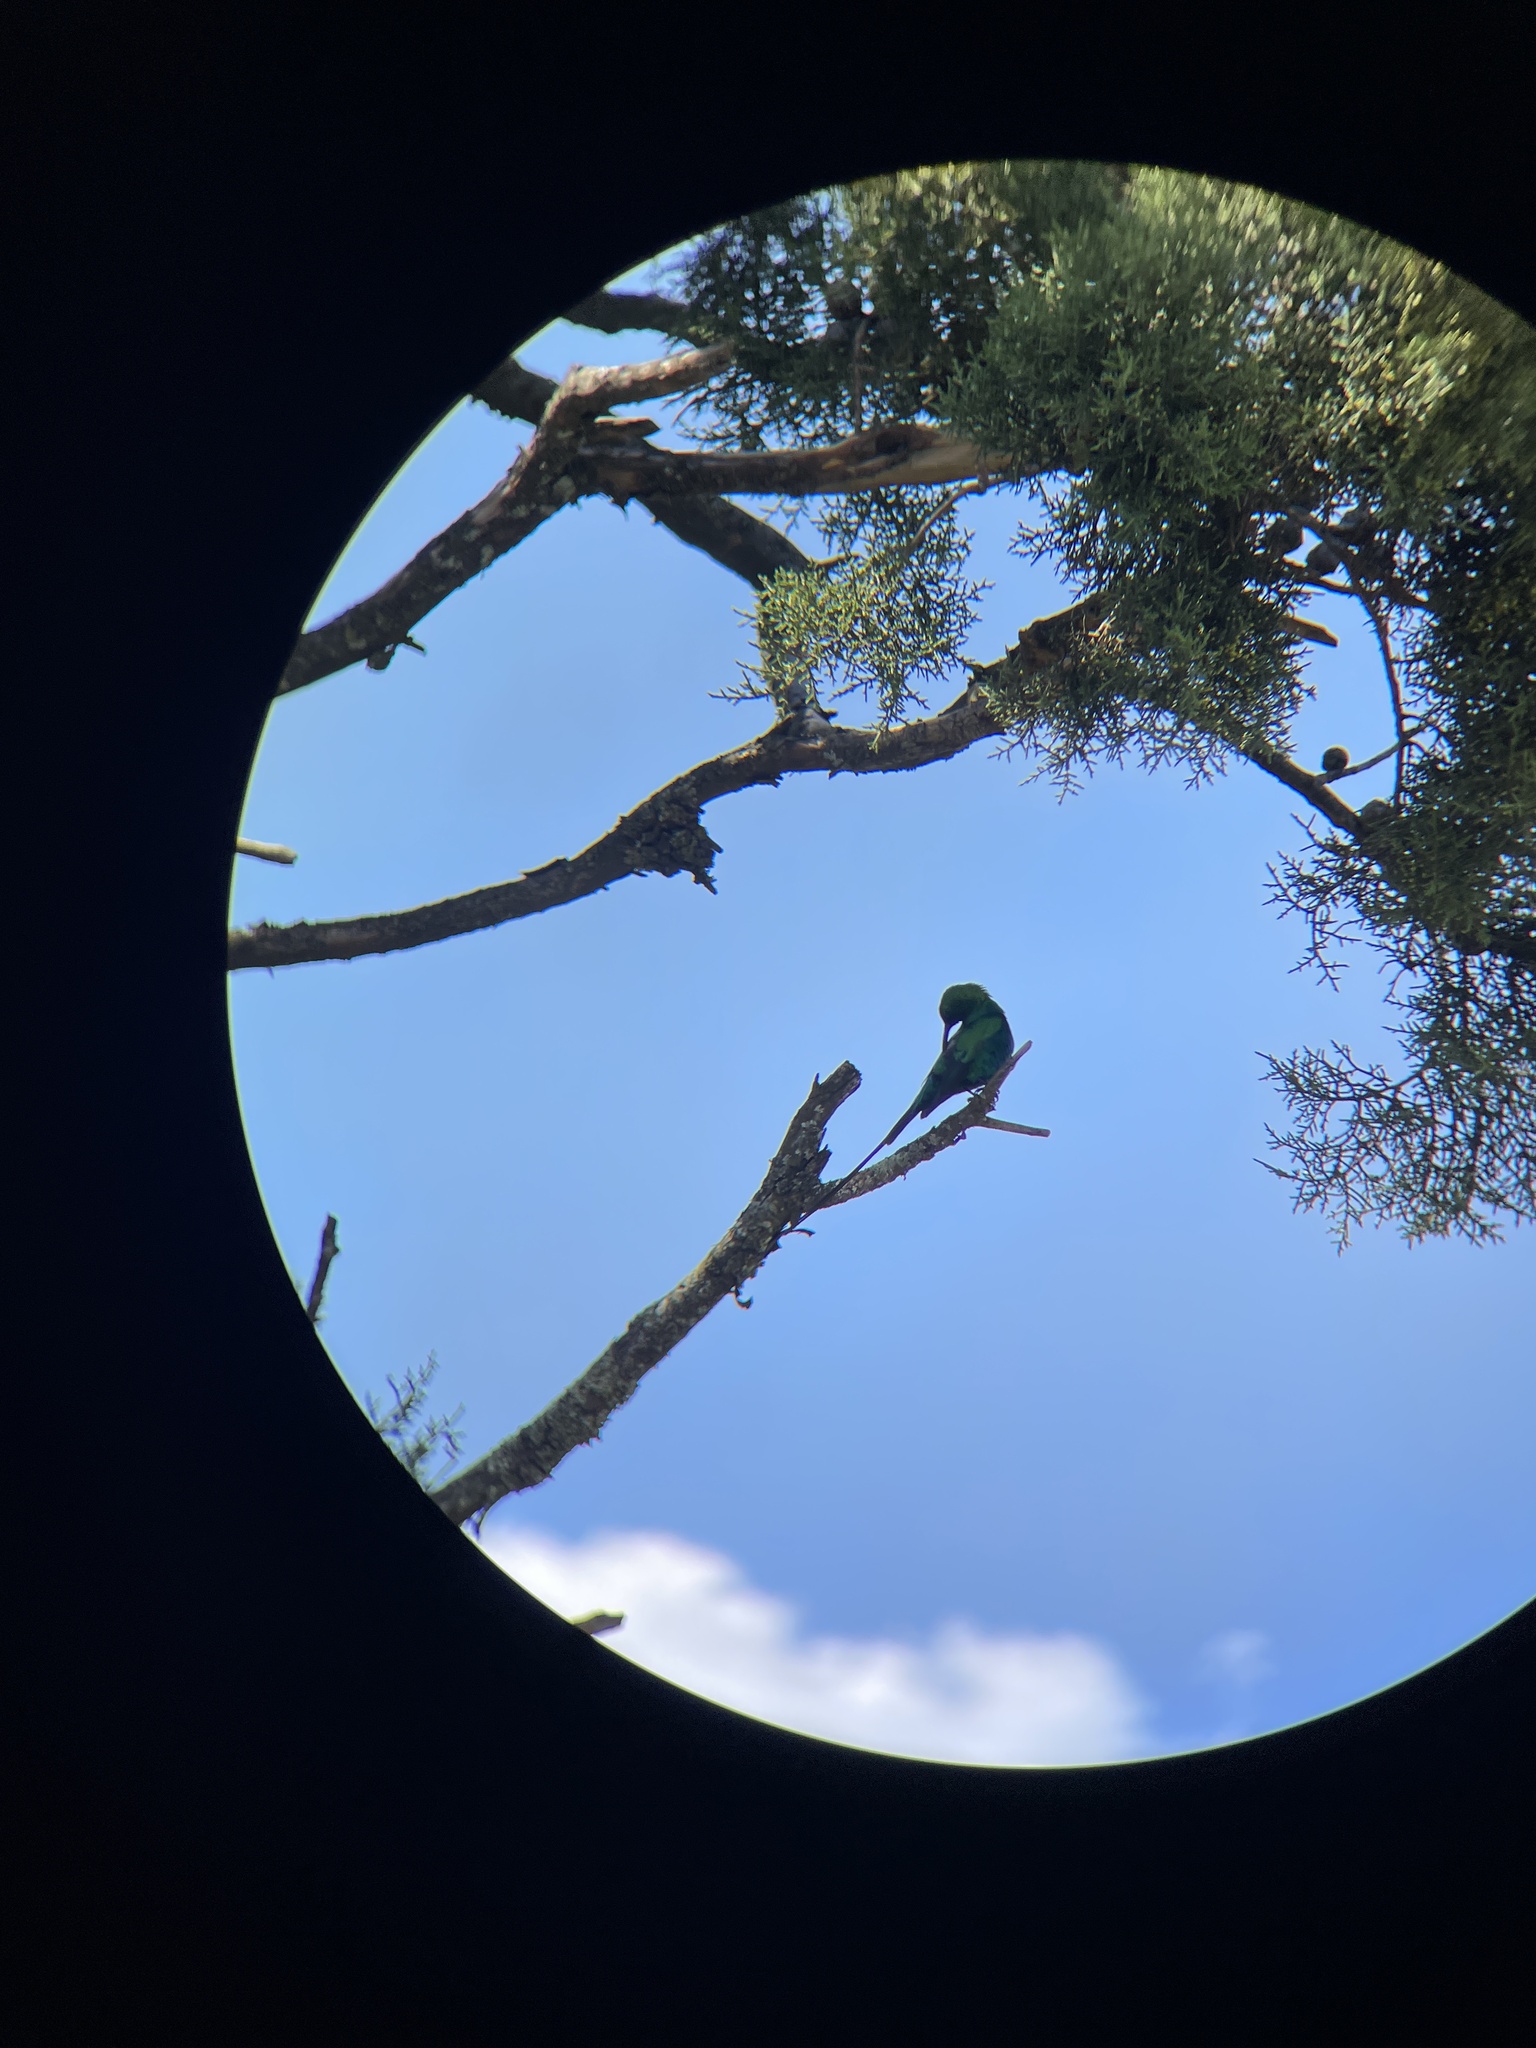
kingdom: Animalia
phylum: Chordata
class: Aves
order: Passeriformes
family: Nectariniidae
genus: Nectarinia
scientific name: Nectarinia famosa
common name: Malachite sunbird
